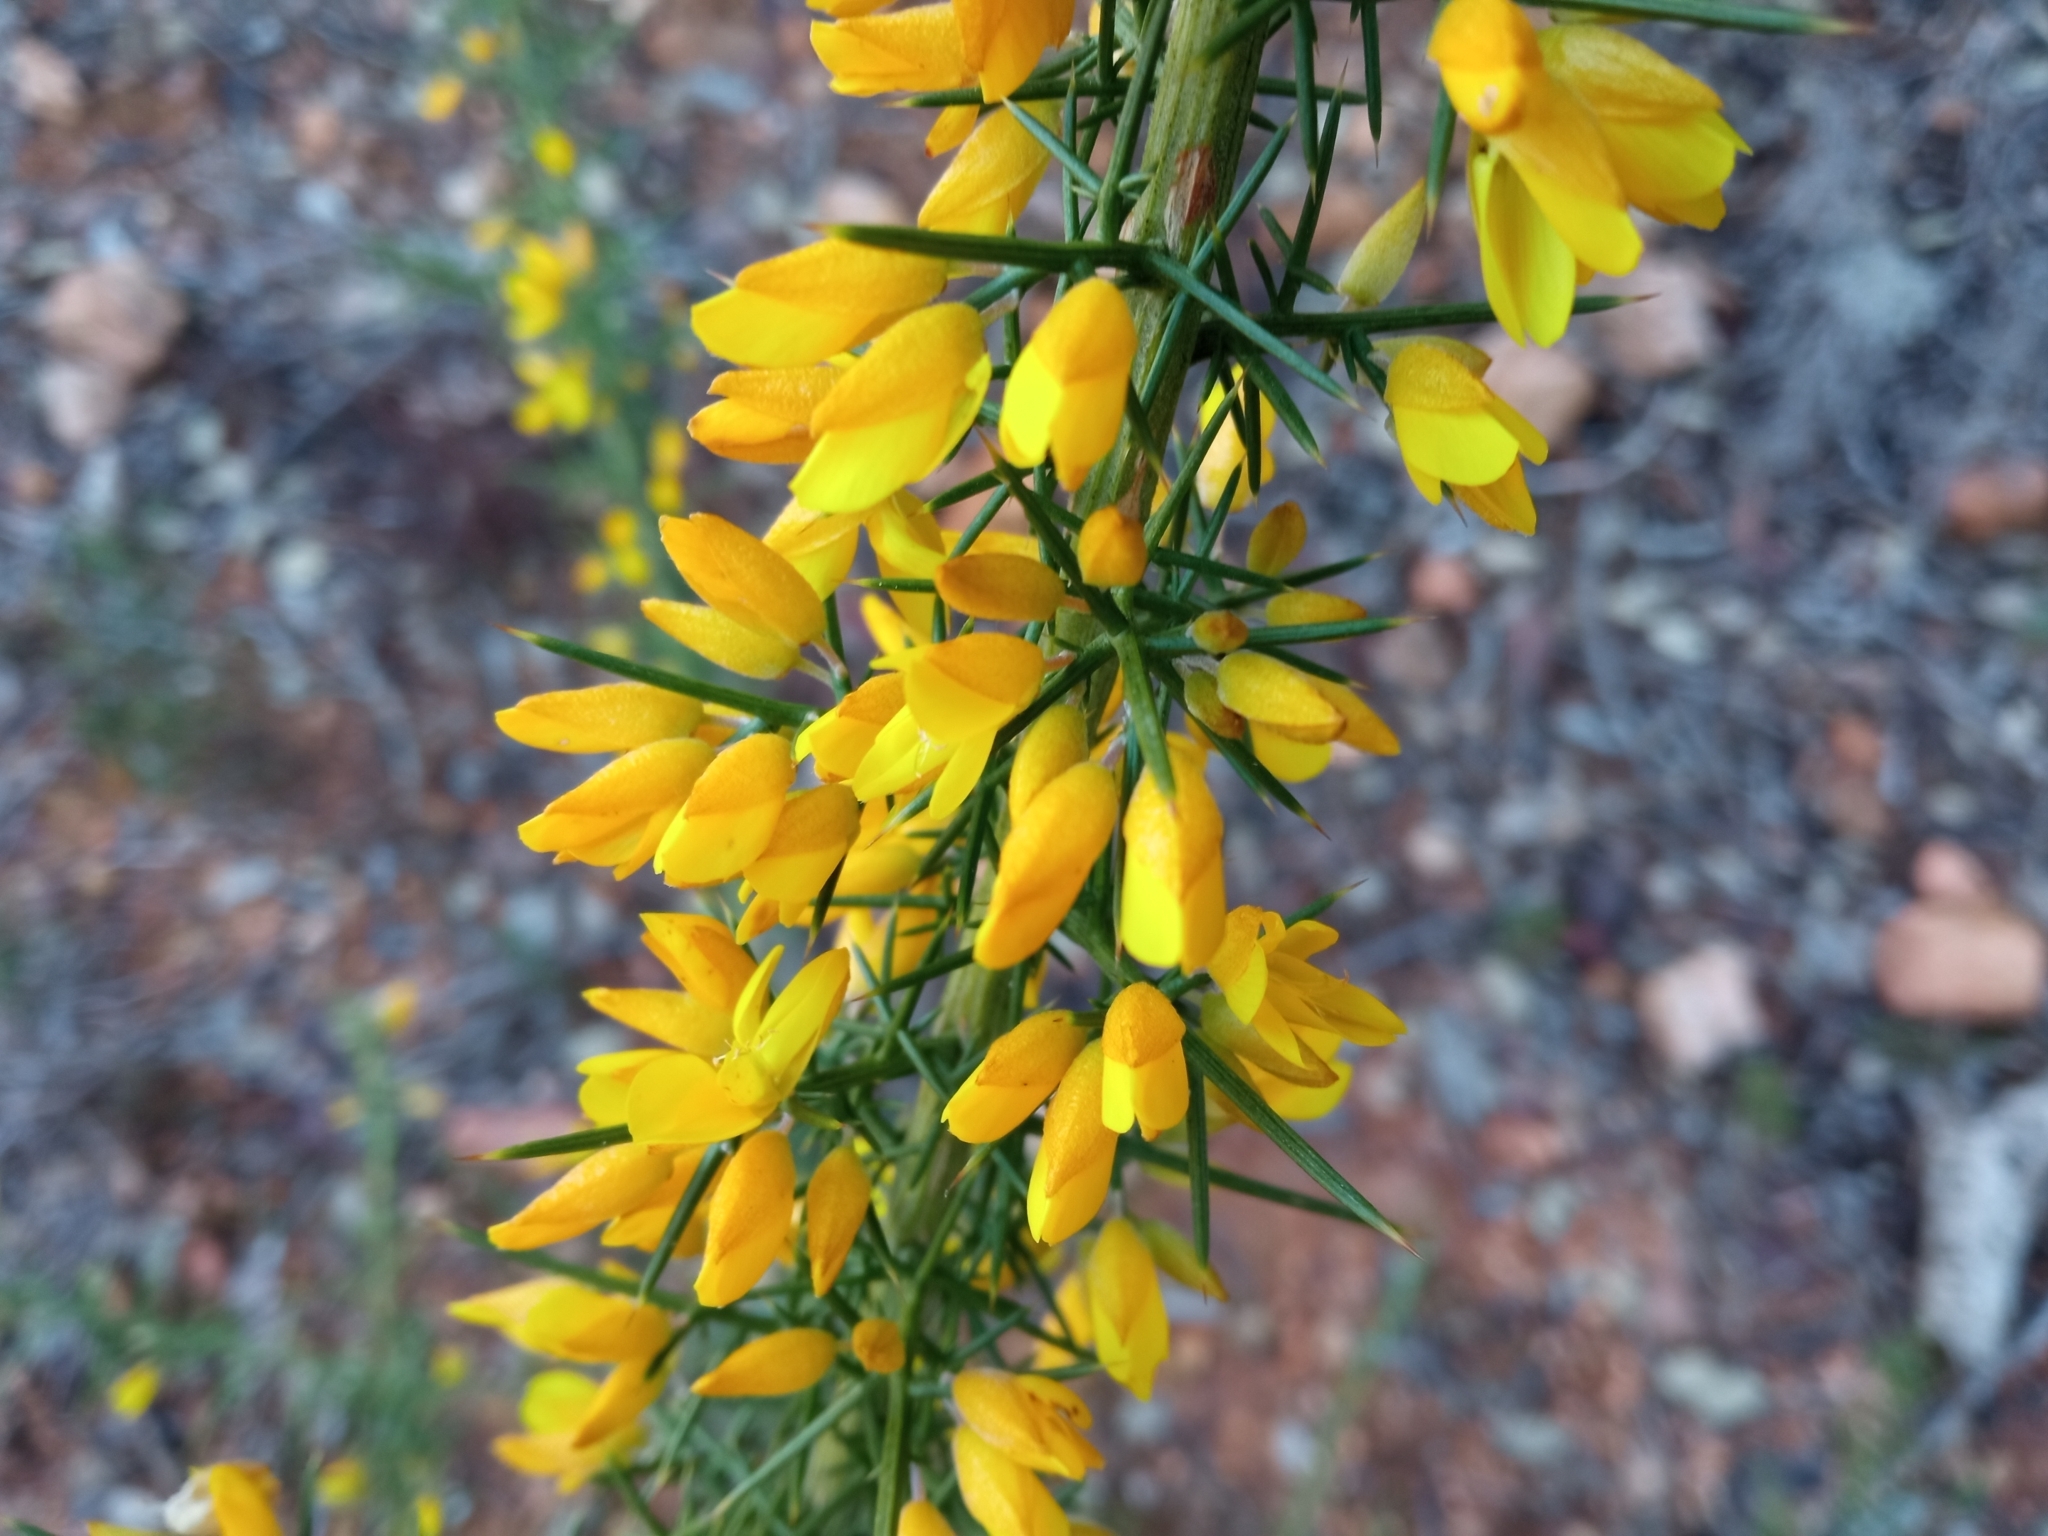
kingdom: Plantae
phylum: Tracheophyta
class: Magnoliopsida
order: Fabales
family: Fabaceae
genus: Ulex
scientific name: Ulex parviflorus
